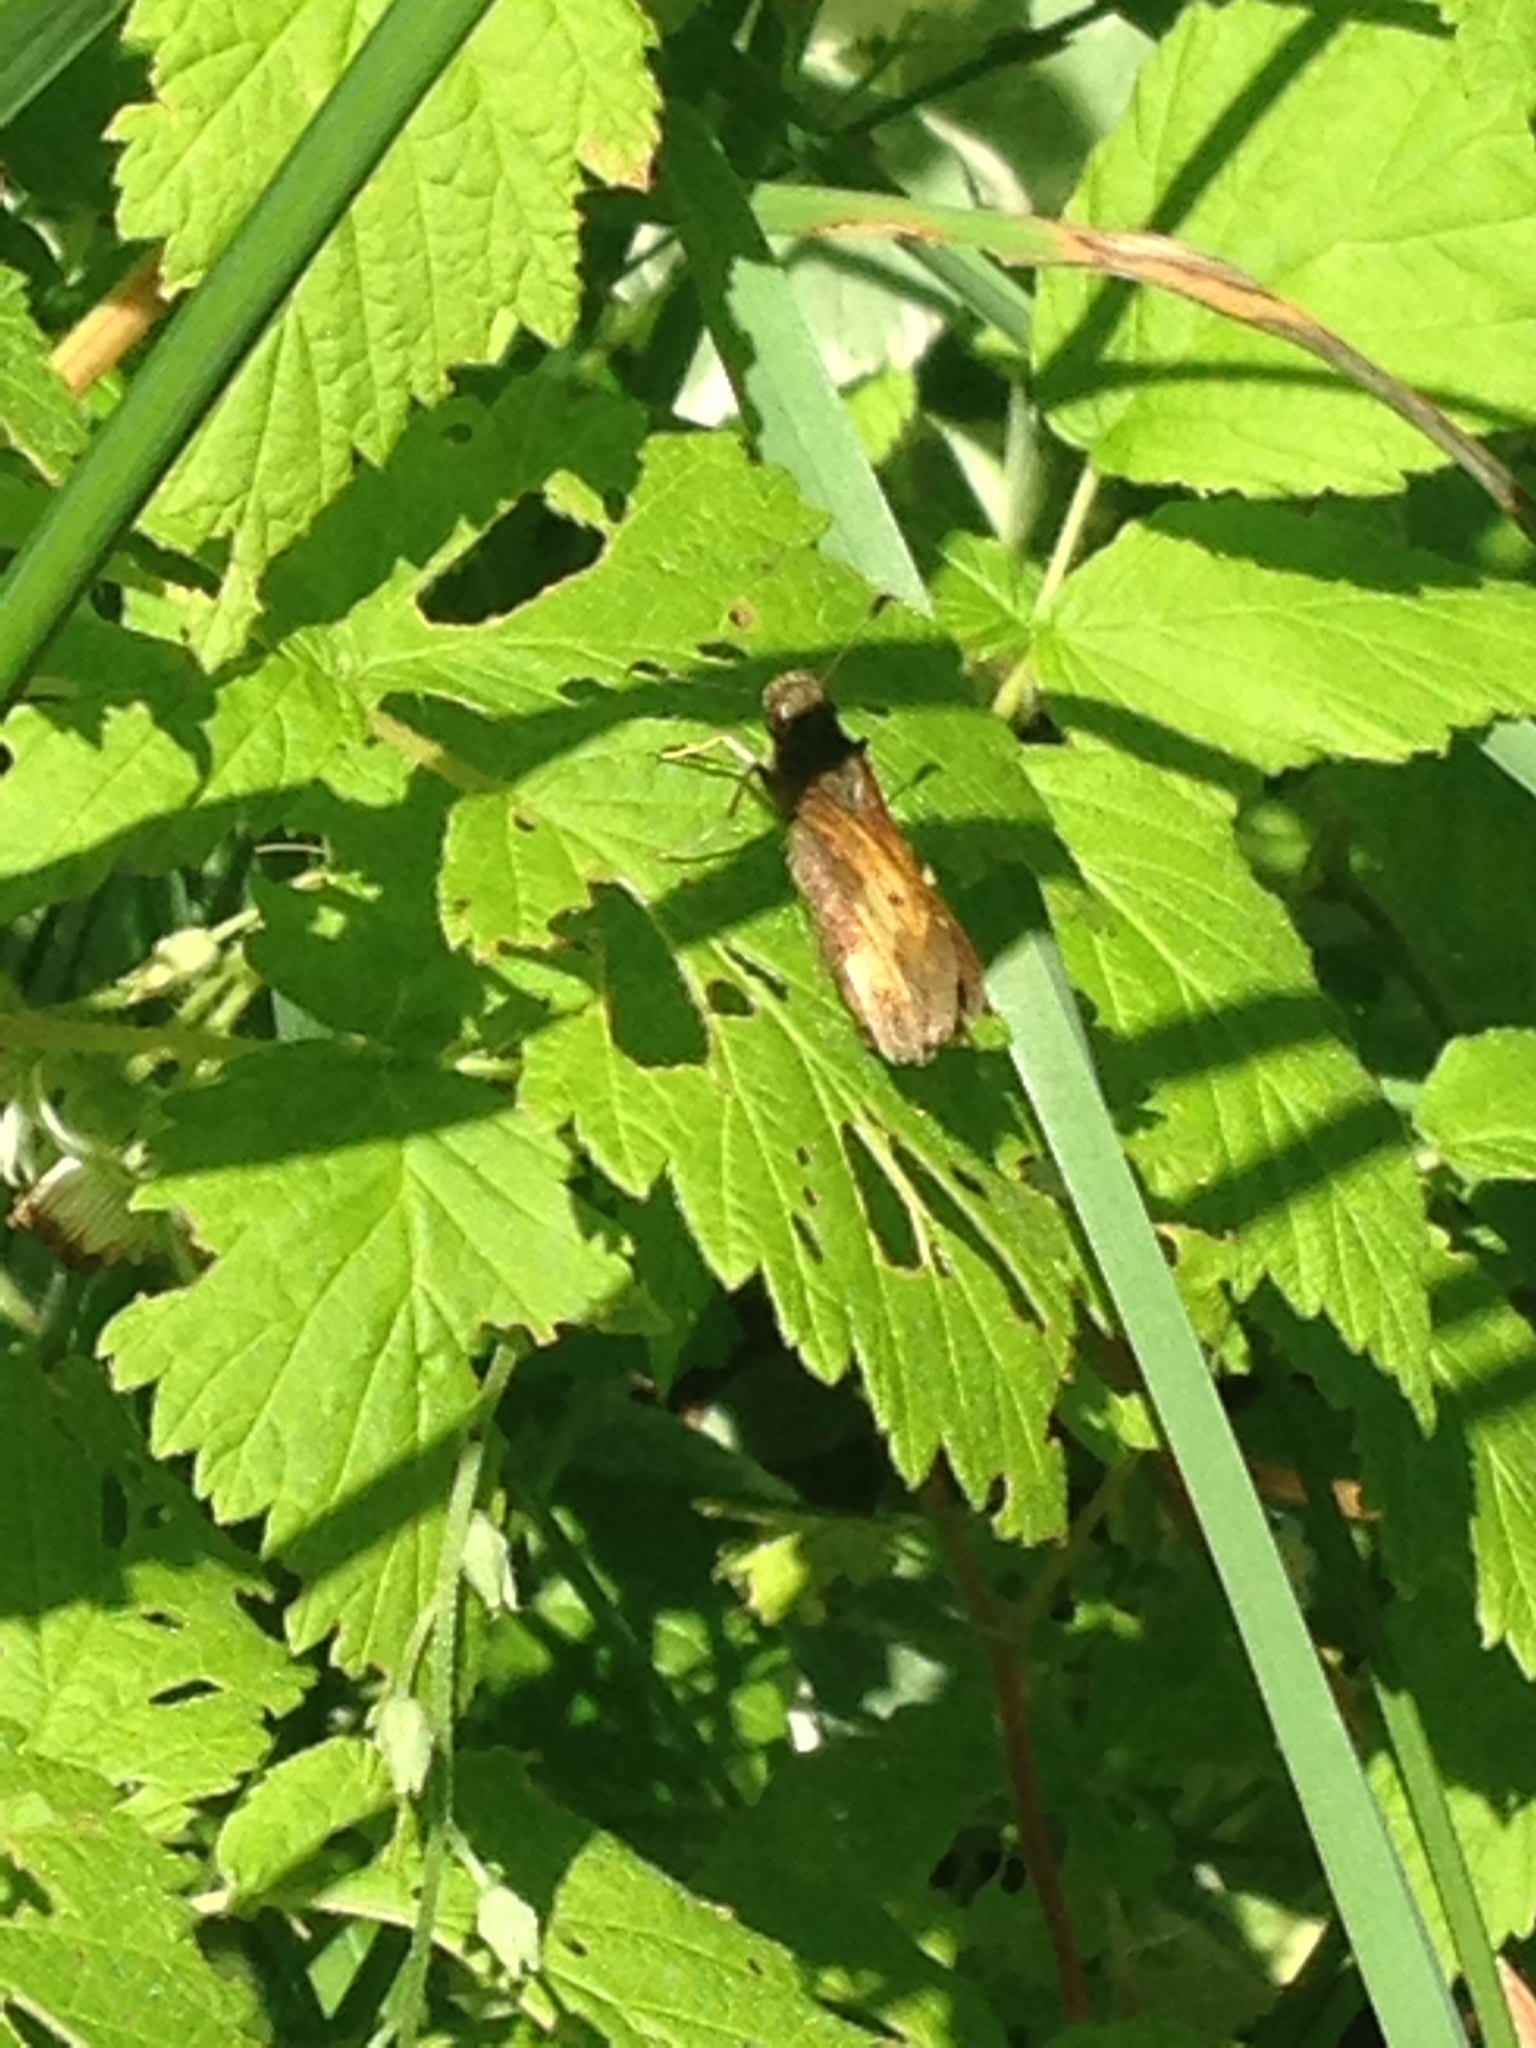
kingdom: Animalia
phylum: Arthropoda
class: Insecta
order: Lepidoptera
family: Hesperiidae
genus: Lon
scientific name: Lon hobomok
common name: Hobomok skipper
